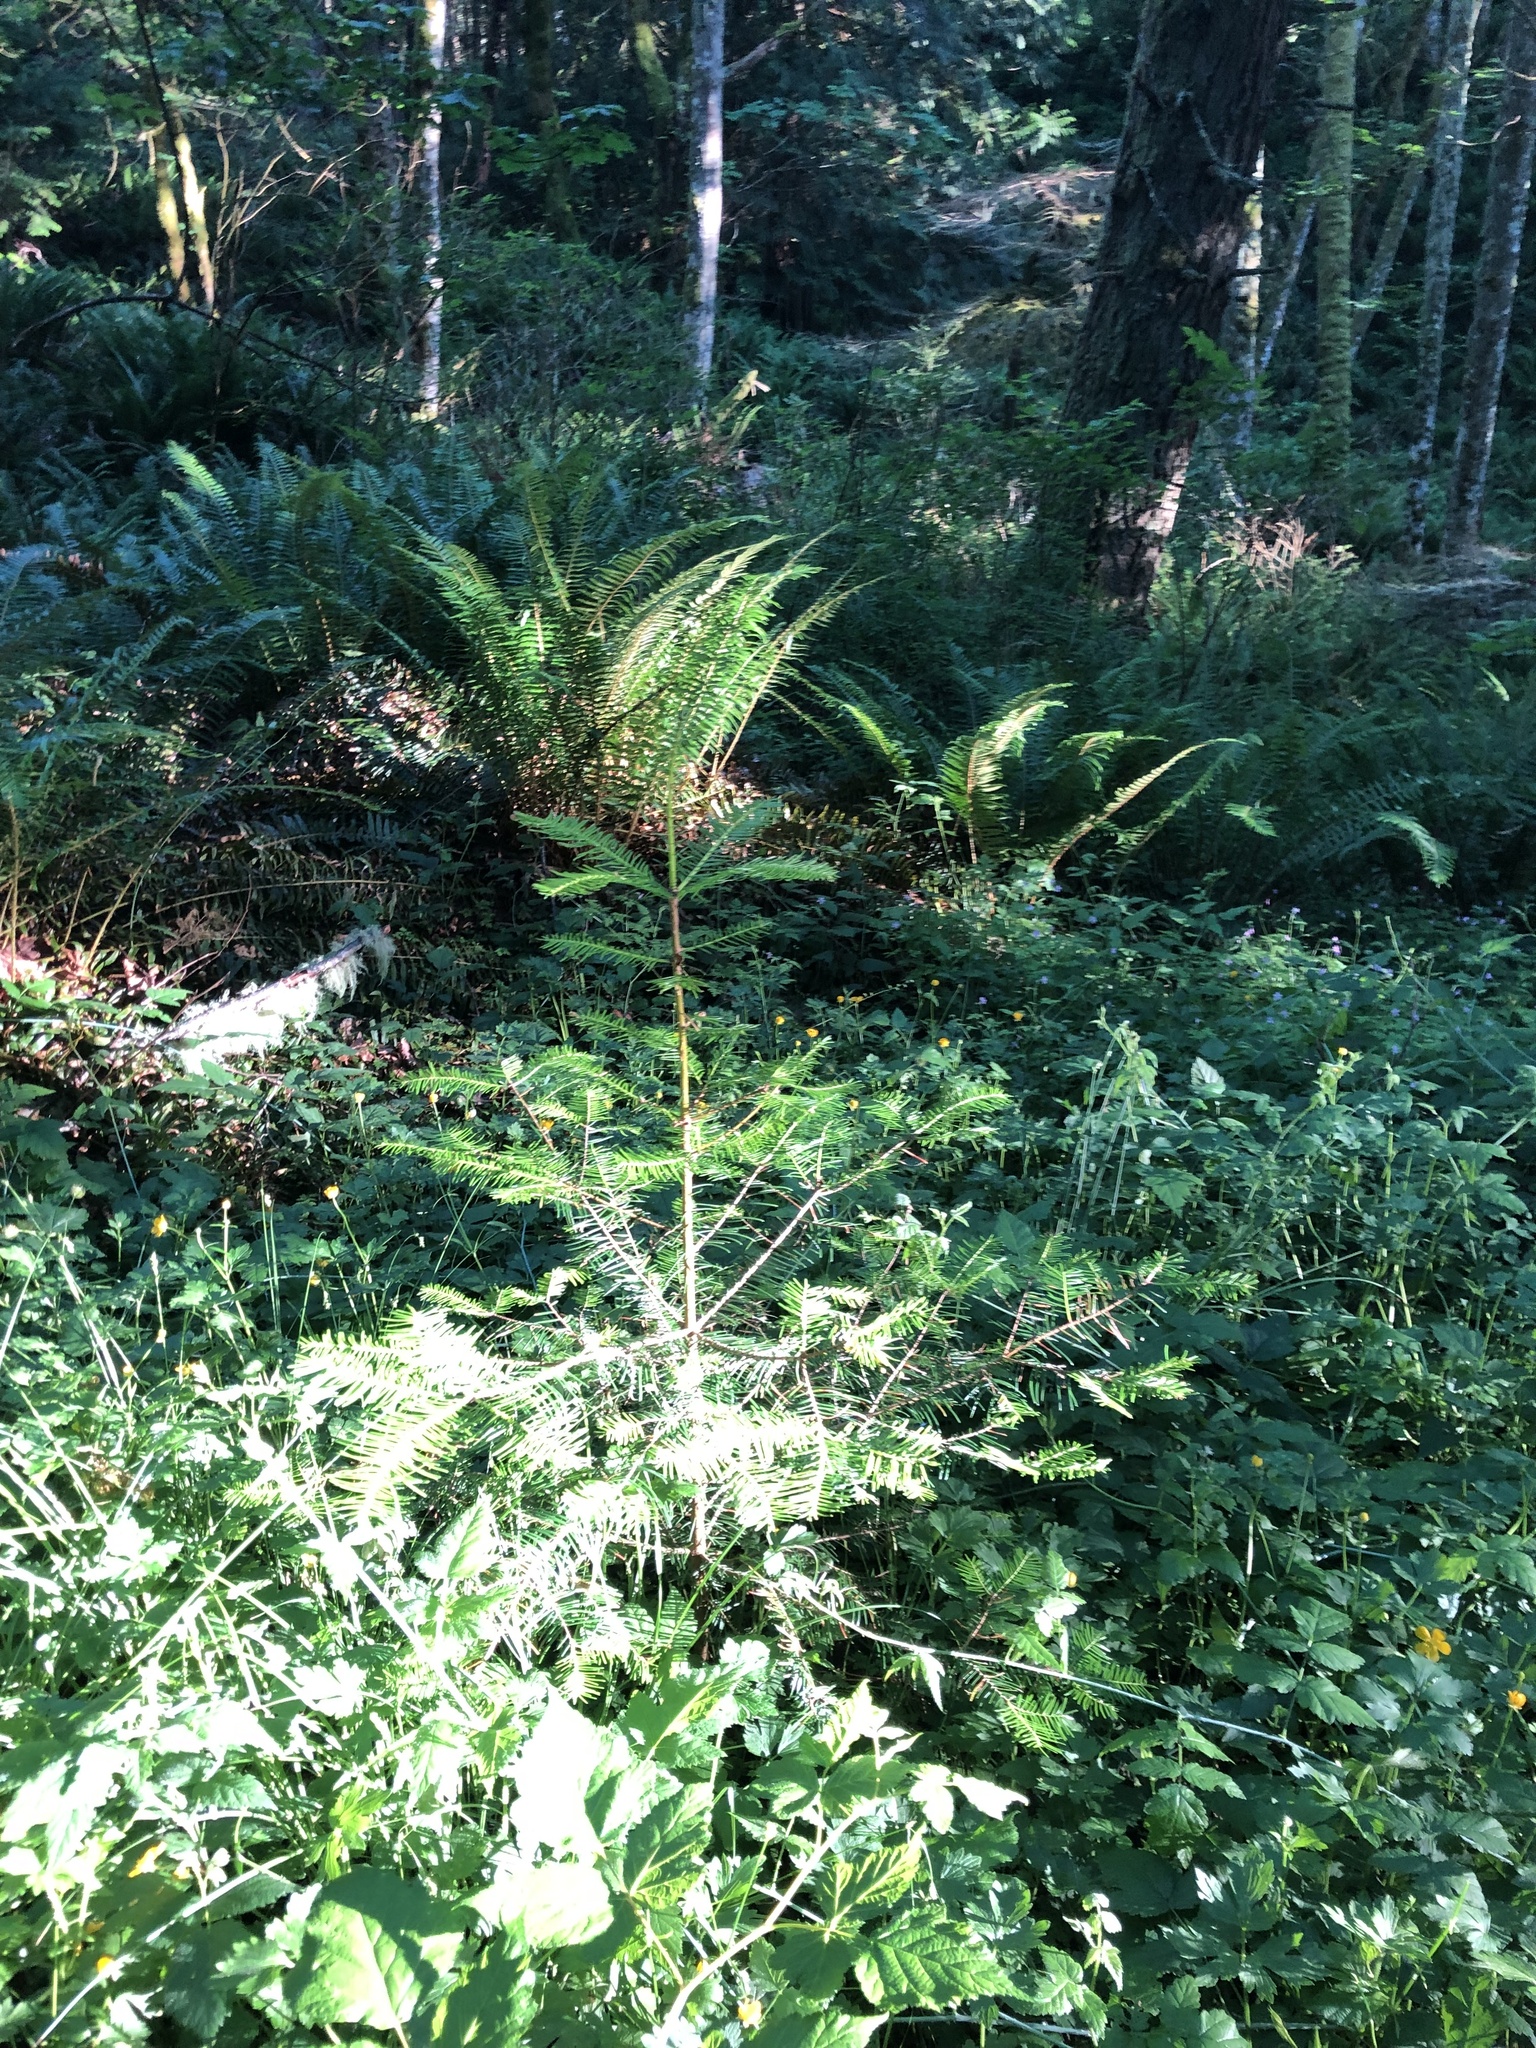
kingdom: Plantae
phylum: Tracheophyta
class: Pinopsida
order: Pinales
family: Pinaceae
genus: Abies
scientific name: Abies grandis
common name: Giant fir
